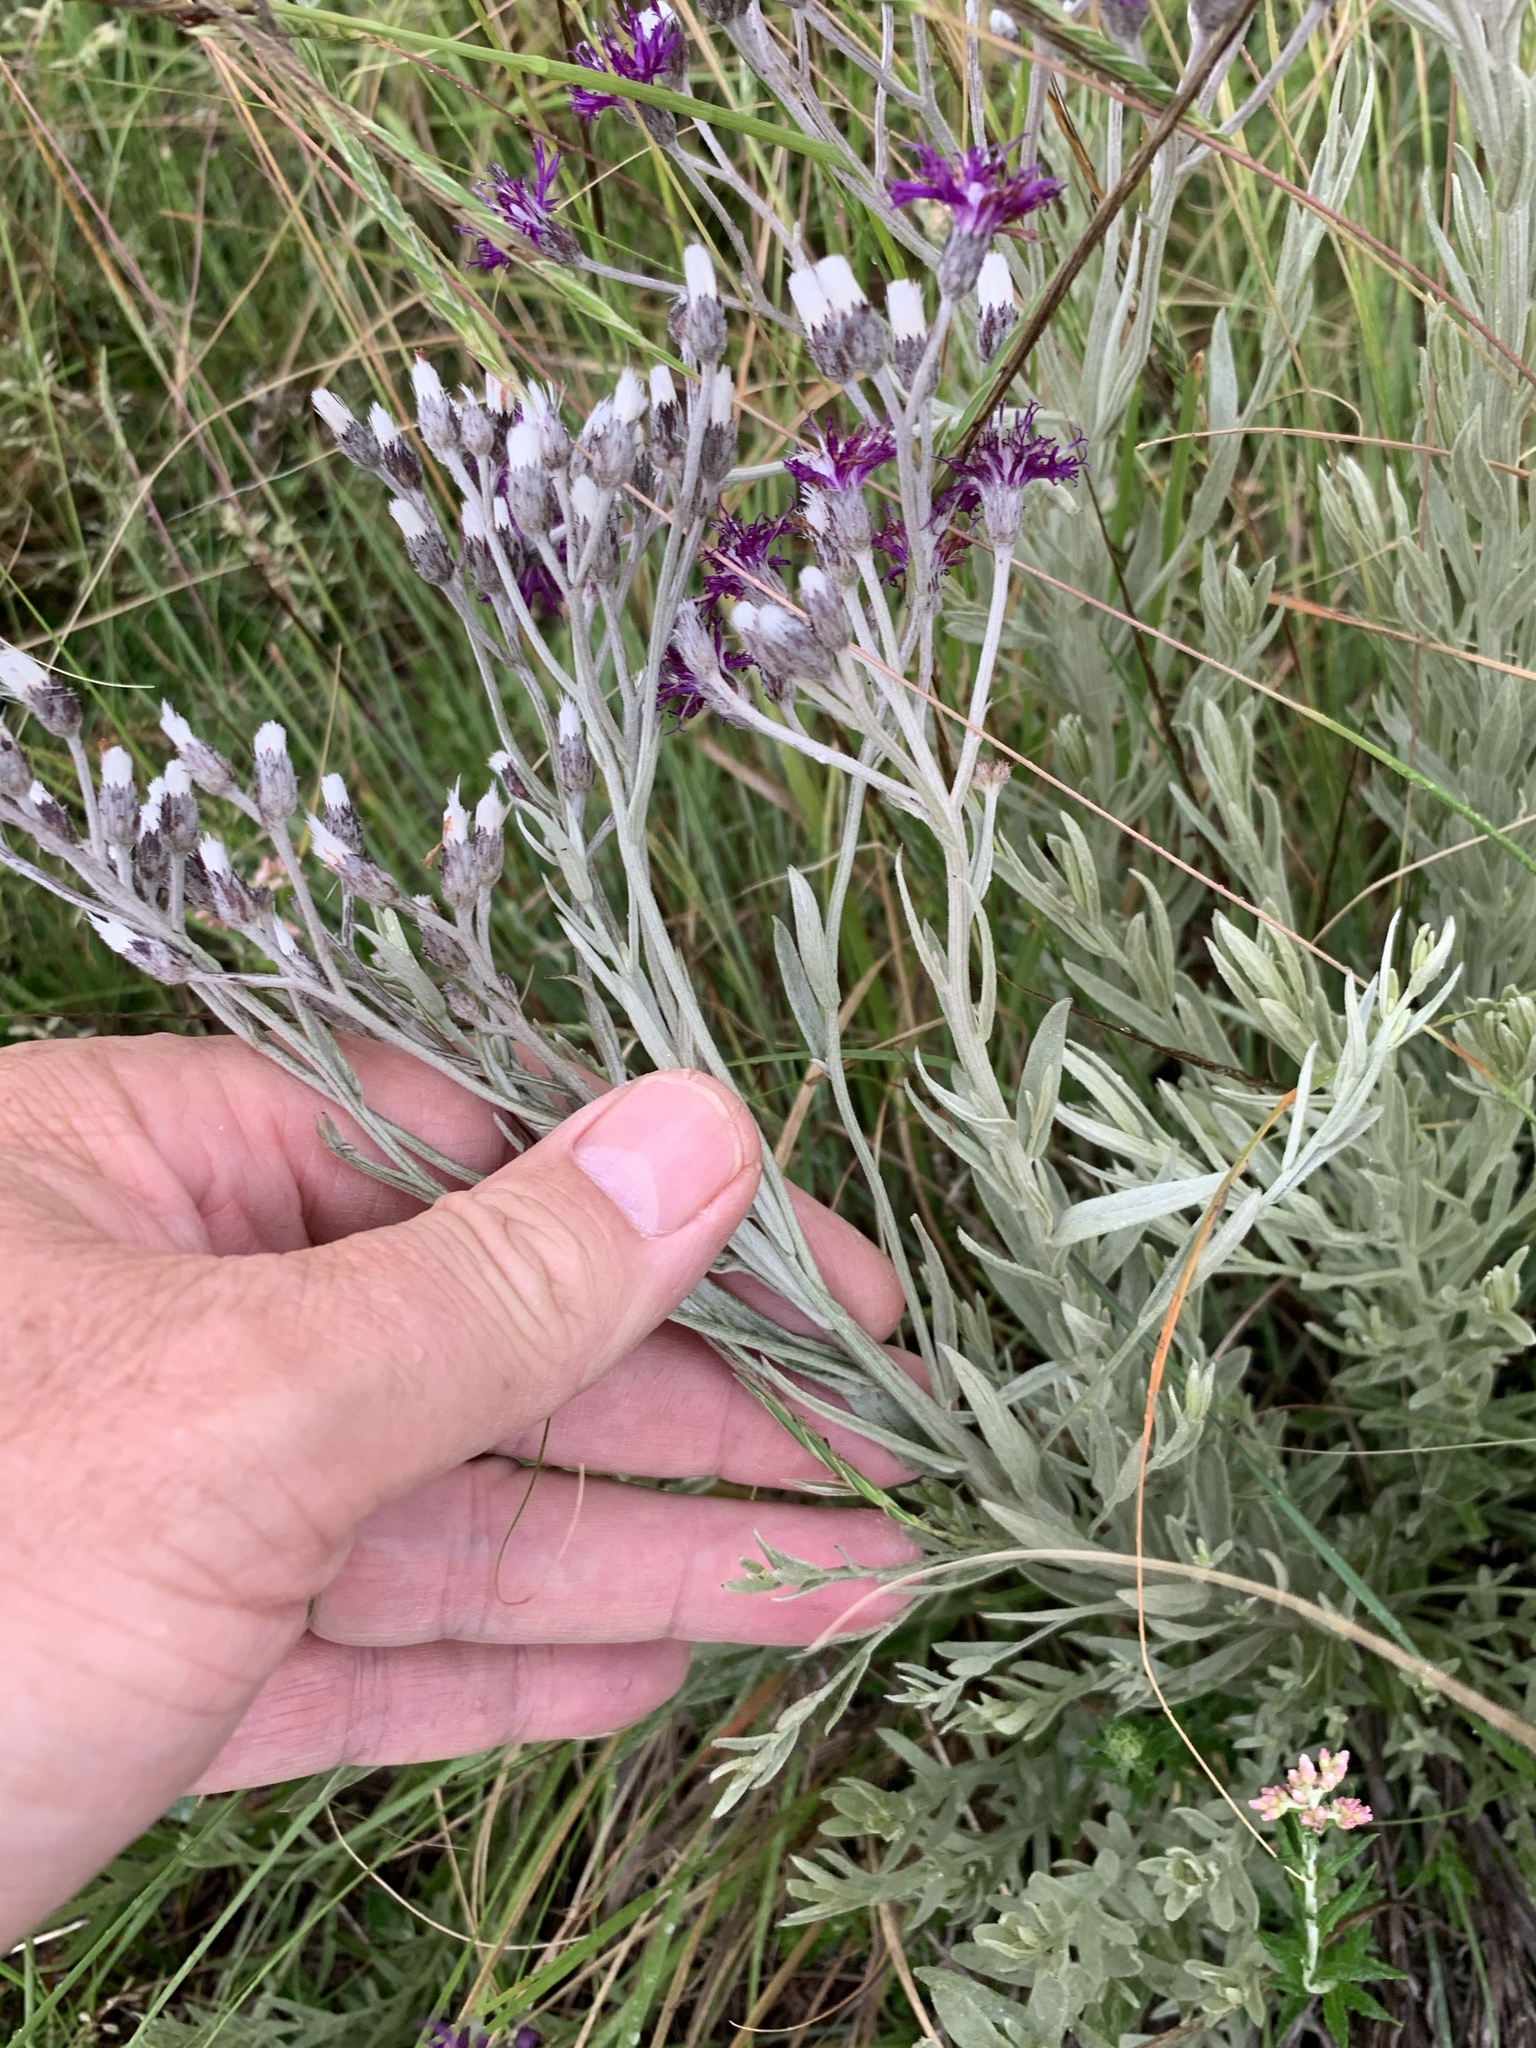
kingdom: Plantae
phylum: Tracheophyta
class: Magnoliopsida
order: Asterales
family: Asteraceae
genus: Hilliardiella
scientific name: Hilliardiella aristata
